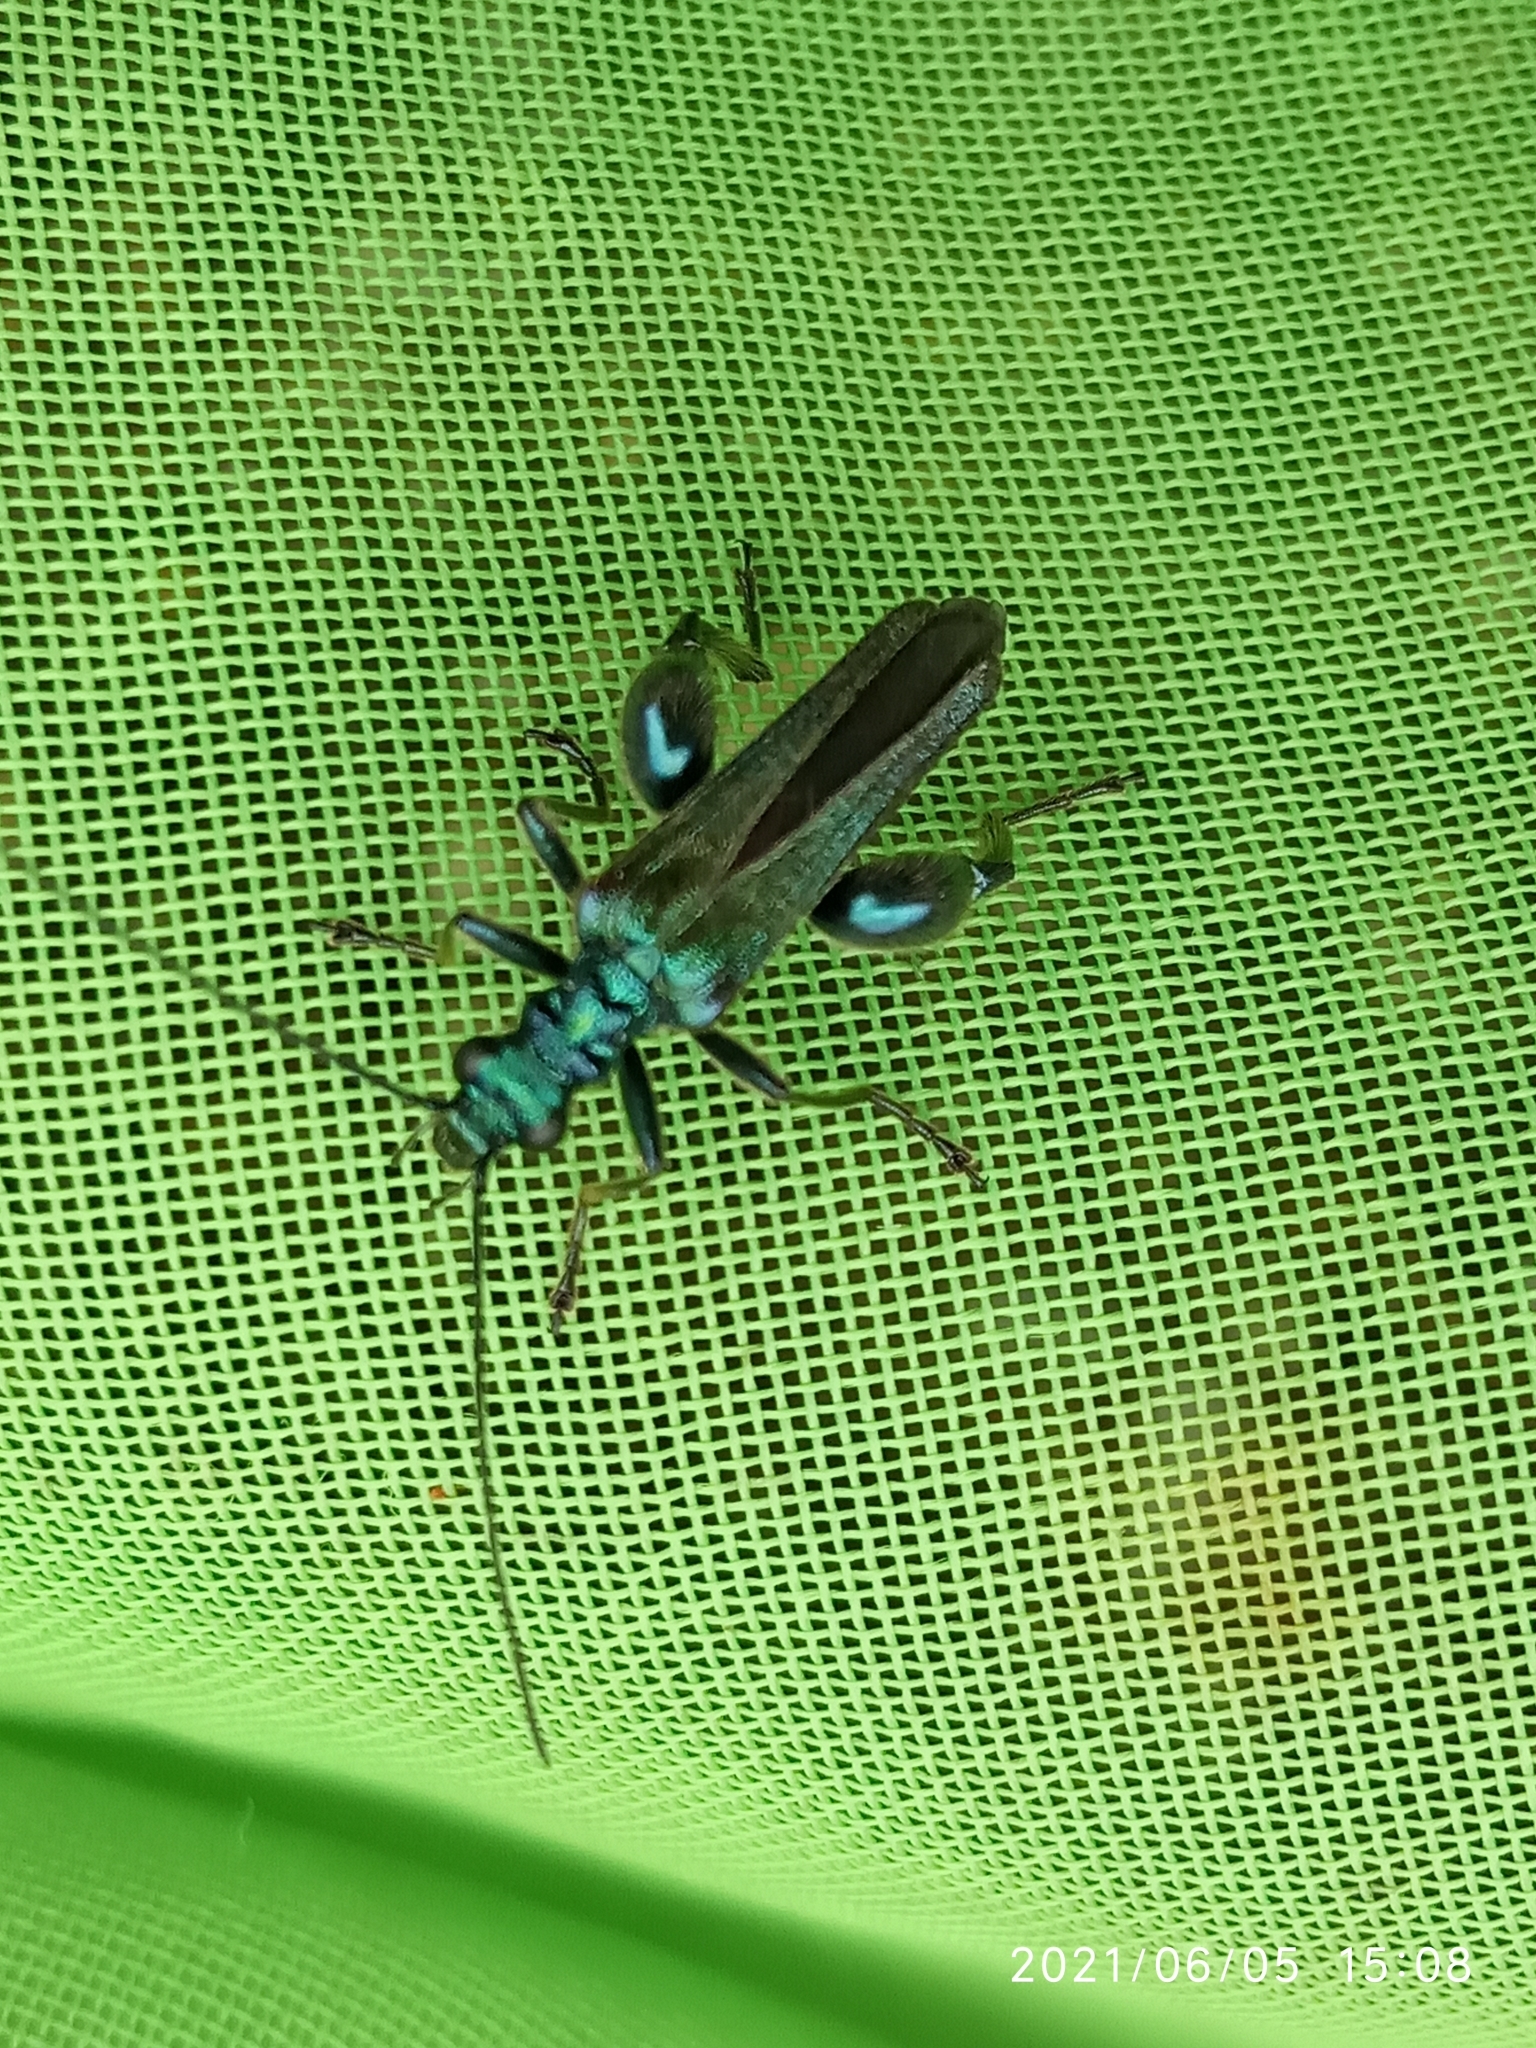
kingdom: Animalia
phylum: Arthropoda
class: Insecta
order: Coleoptera
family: Oedemeridae
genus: Oedemera
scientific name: Oedemera nobilis
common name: Swollen-thighed beetle
